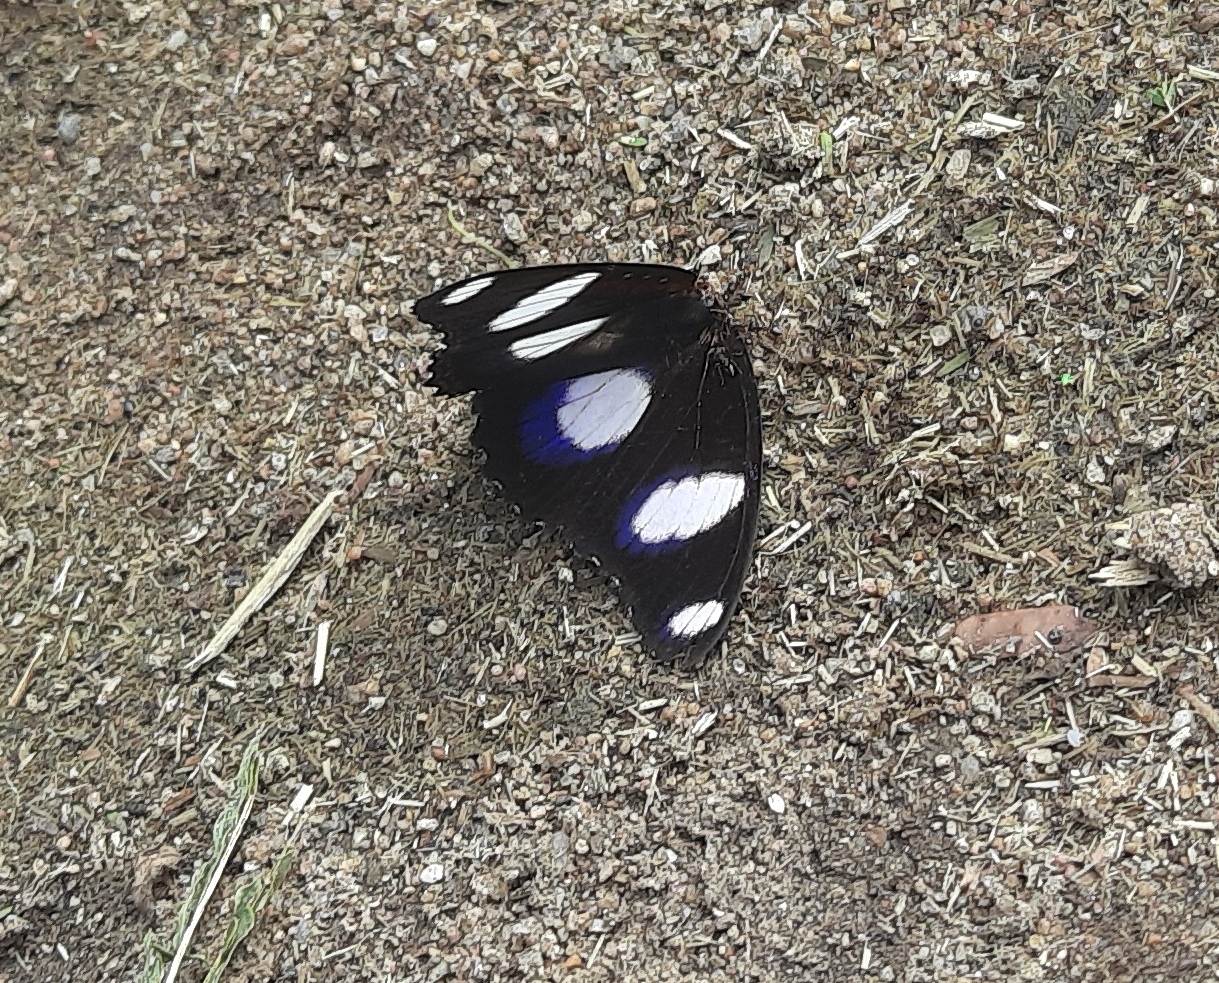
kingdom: Animalia
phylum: Arthropoda
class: Insecta
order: Lepidoptera
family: Nymphalidae
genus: Hypolimnas
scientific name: Hypolimnas misippus
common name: False plain tiger
